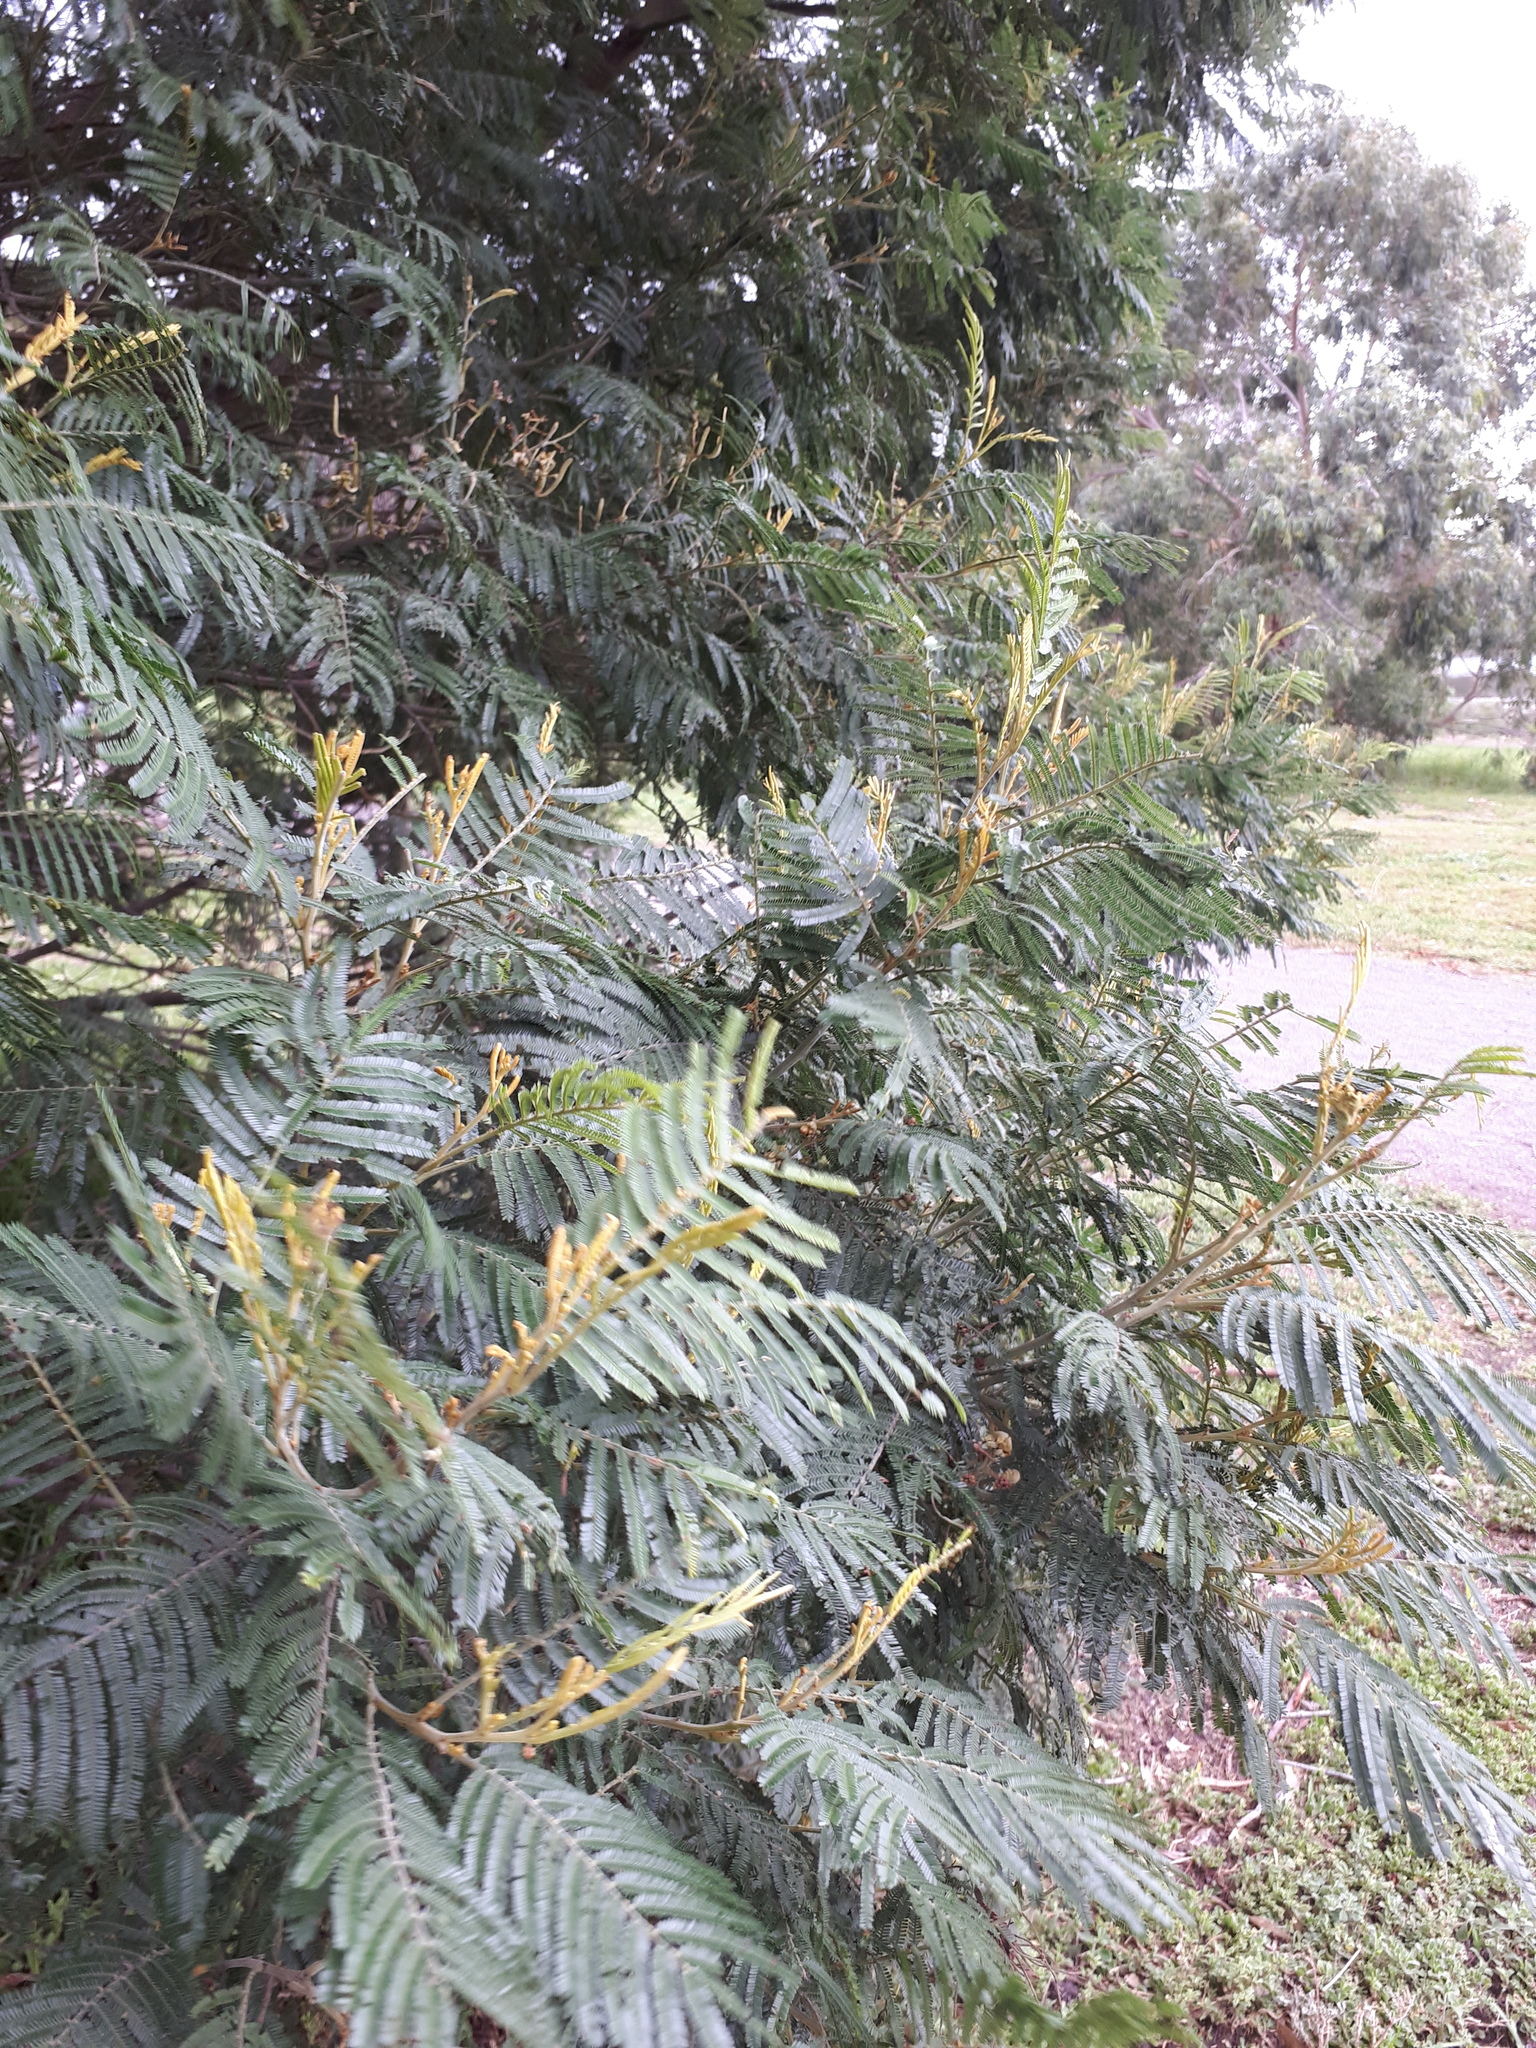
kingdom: Plantae
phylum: Tracheophyta
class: Magnoliopsida
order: Fabales
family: Fabaceae
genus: Acacia
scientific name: Acacia dealbata
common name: Silver wattle
